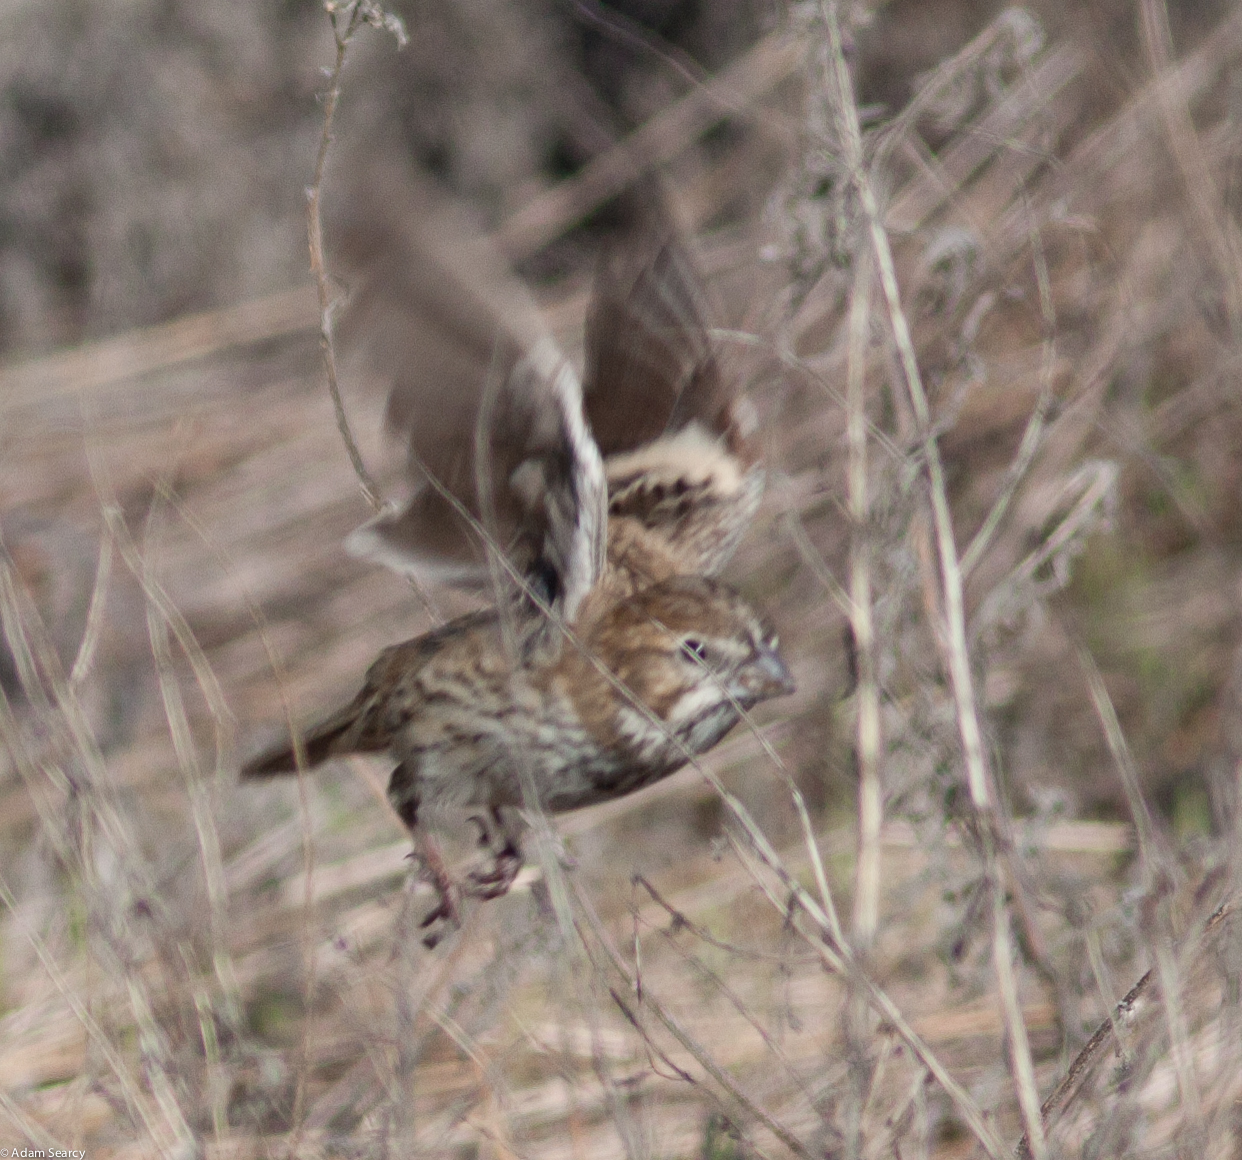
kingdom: Animalia
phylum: Chordata
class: Aves
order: Passeriformes
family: Passerellidae
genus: Calamospiza
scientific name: Calamospiza melanocorys
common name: Lark bunting
